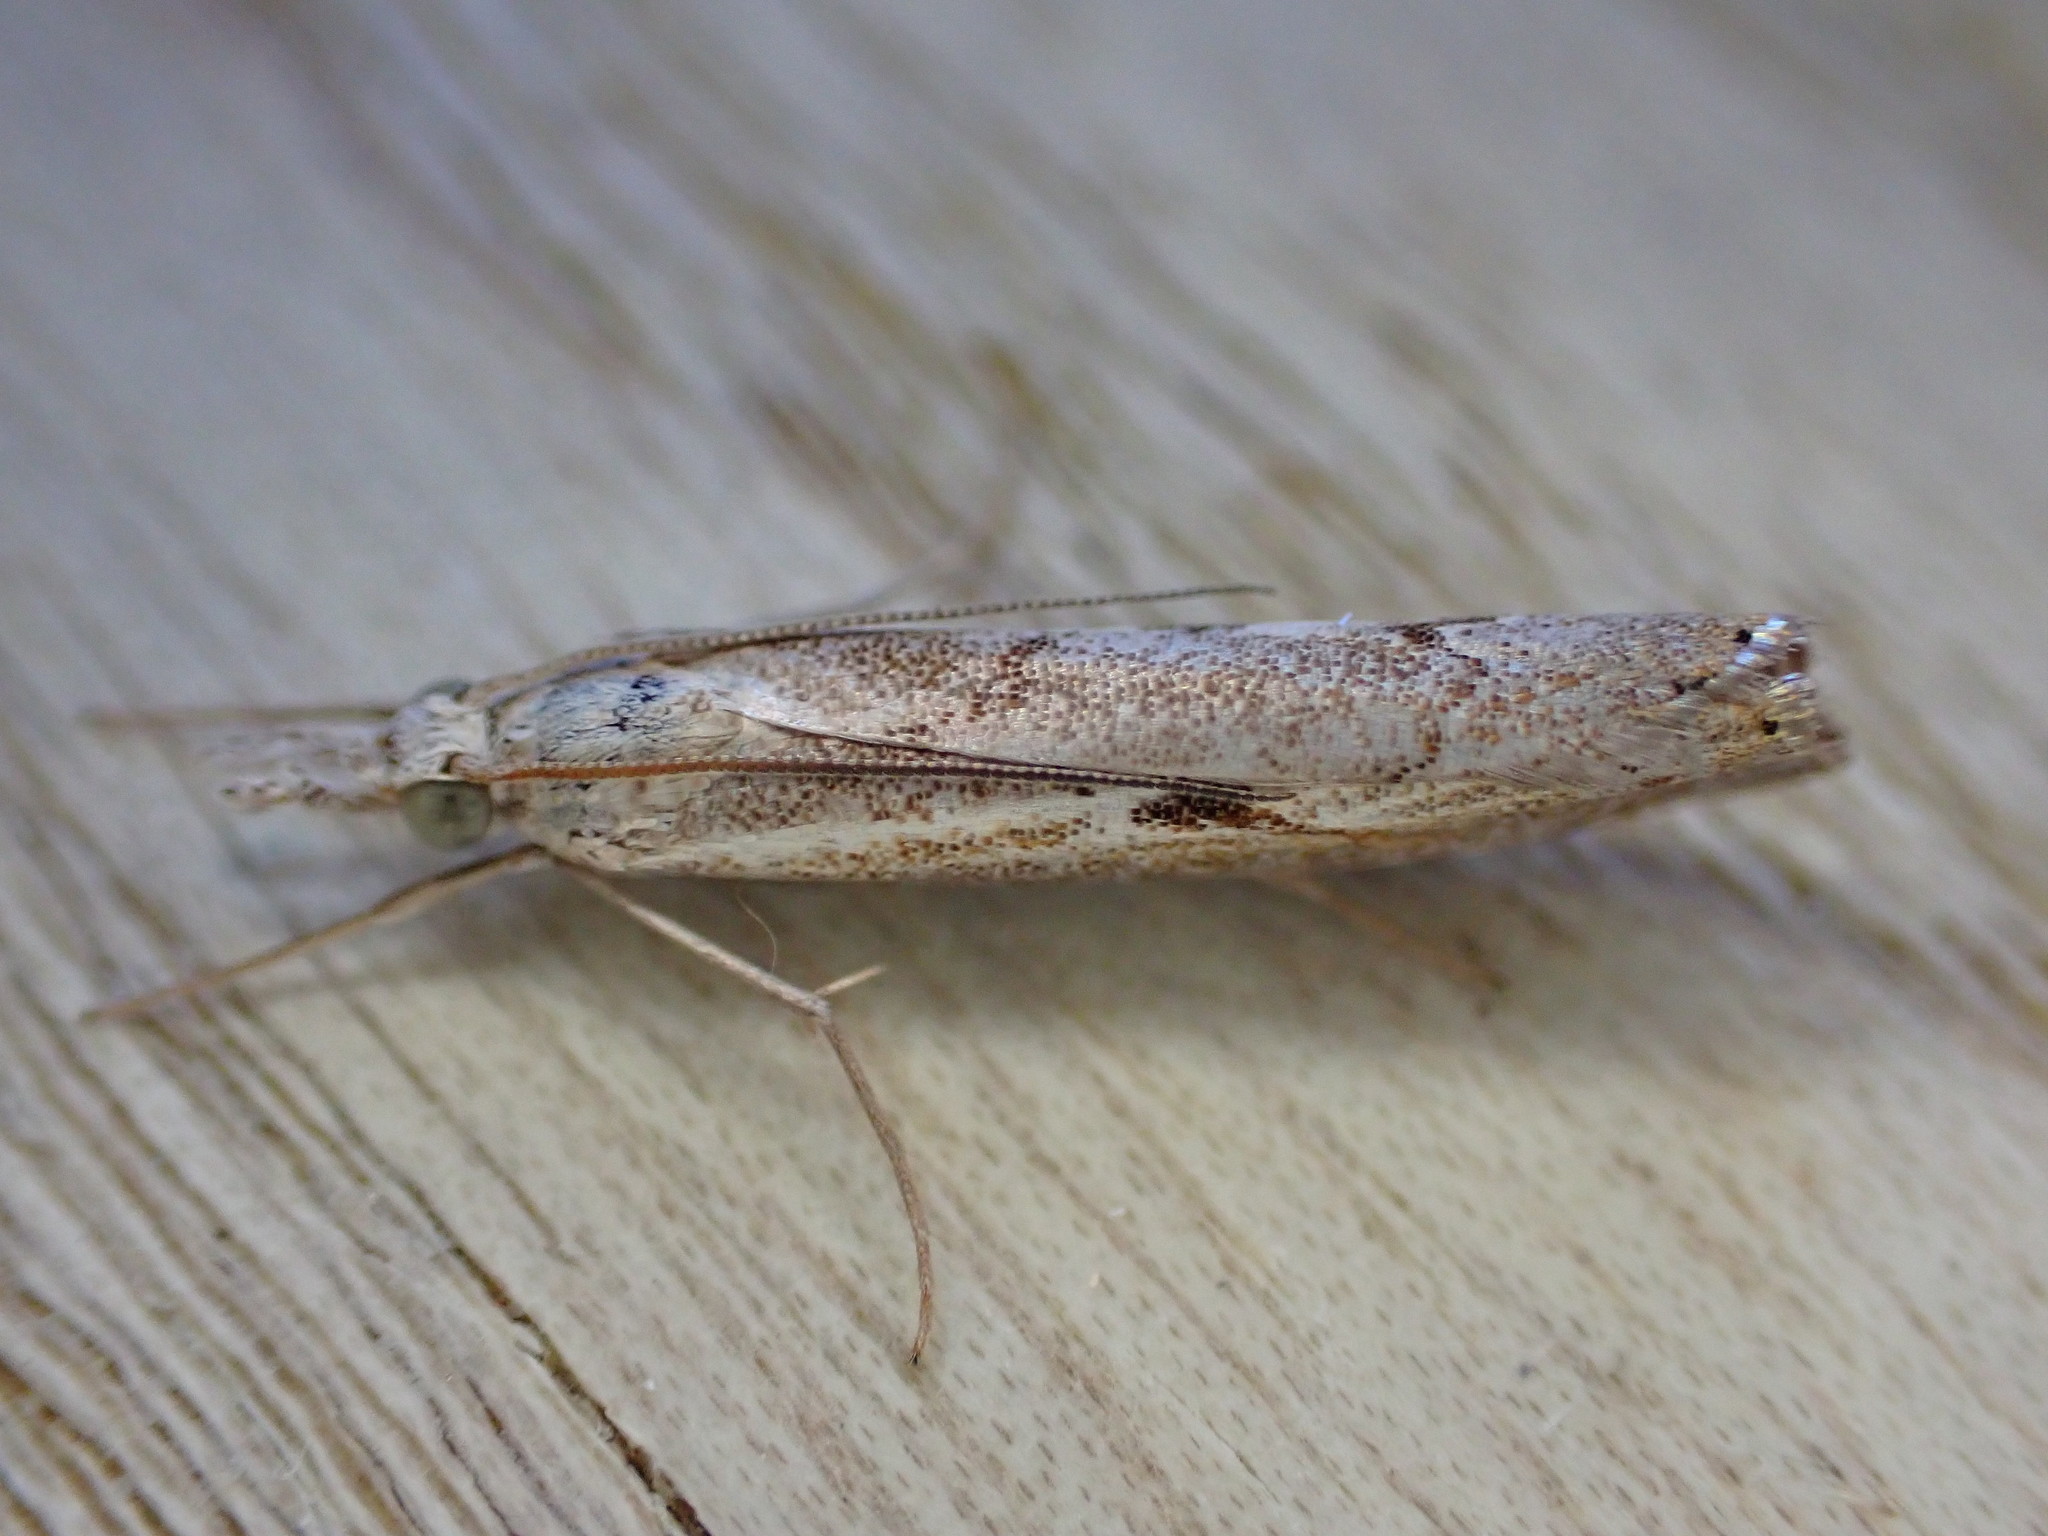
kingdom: Animalia
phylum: Arthropoda
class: Insecta
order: Lepidoptera
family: Crambidae
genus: Agriphila
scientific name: Agriphila geniculea
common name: Elbow-stripe grass-veneer
